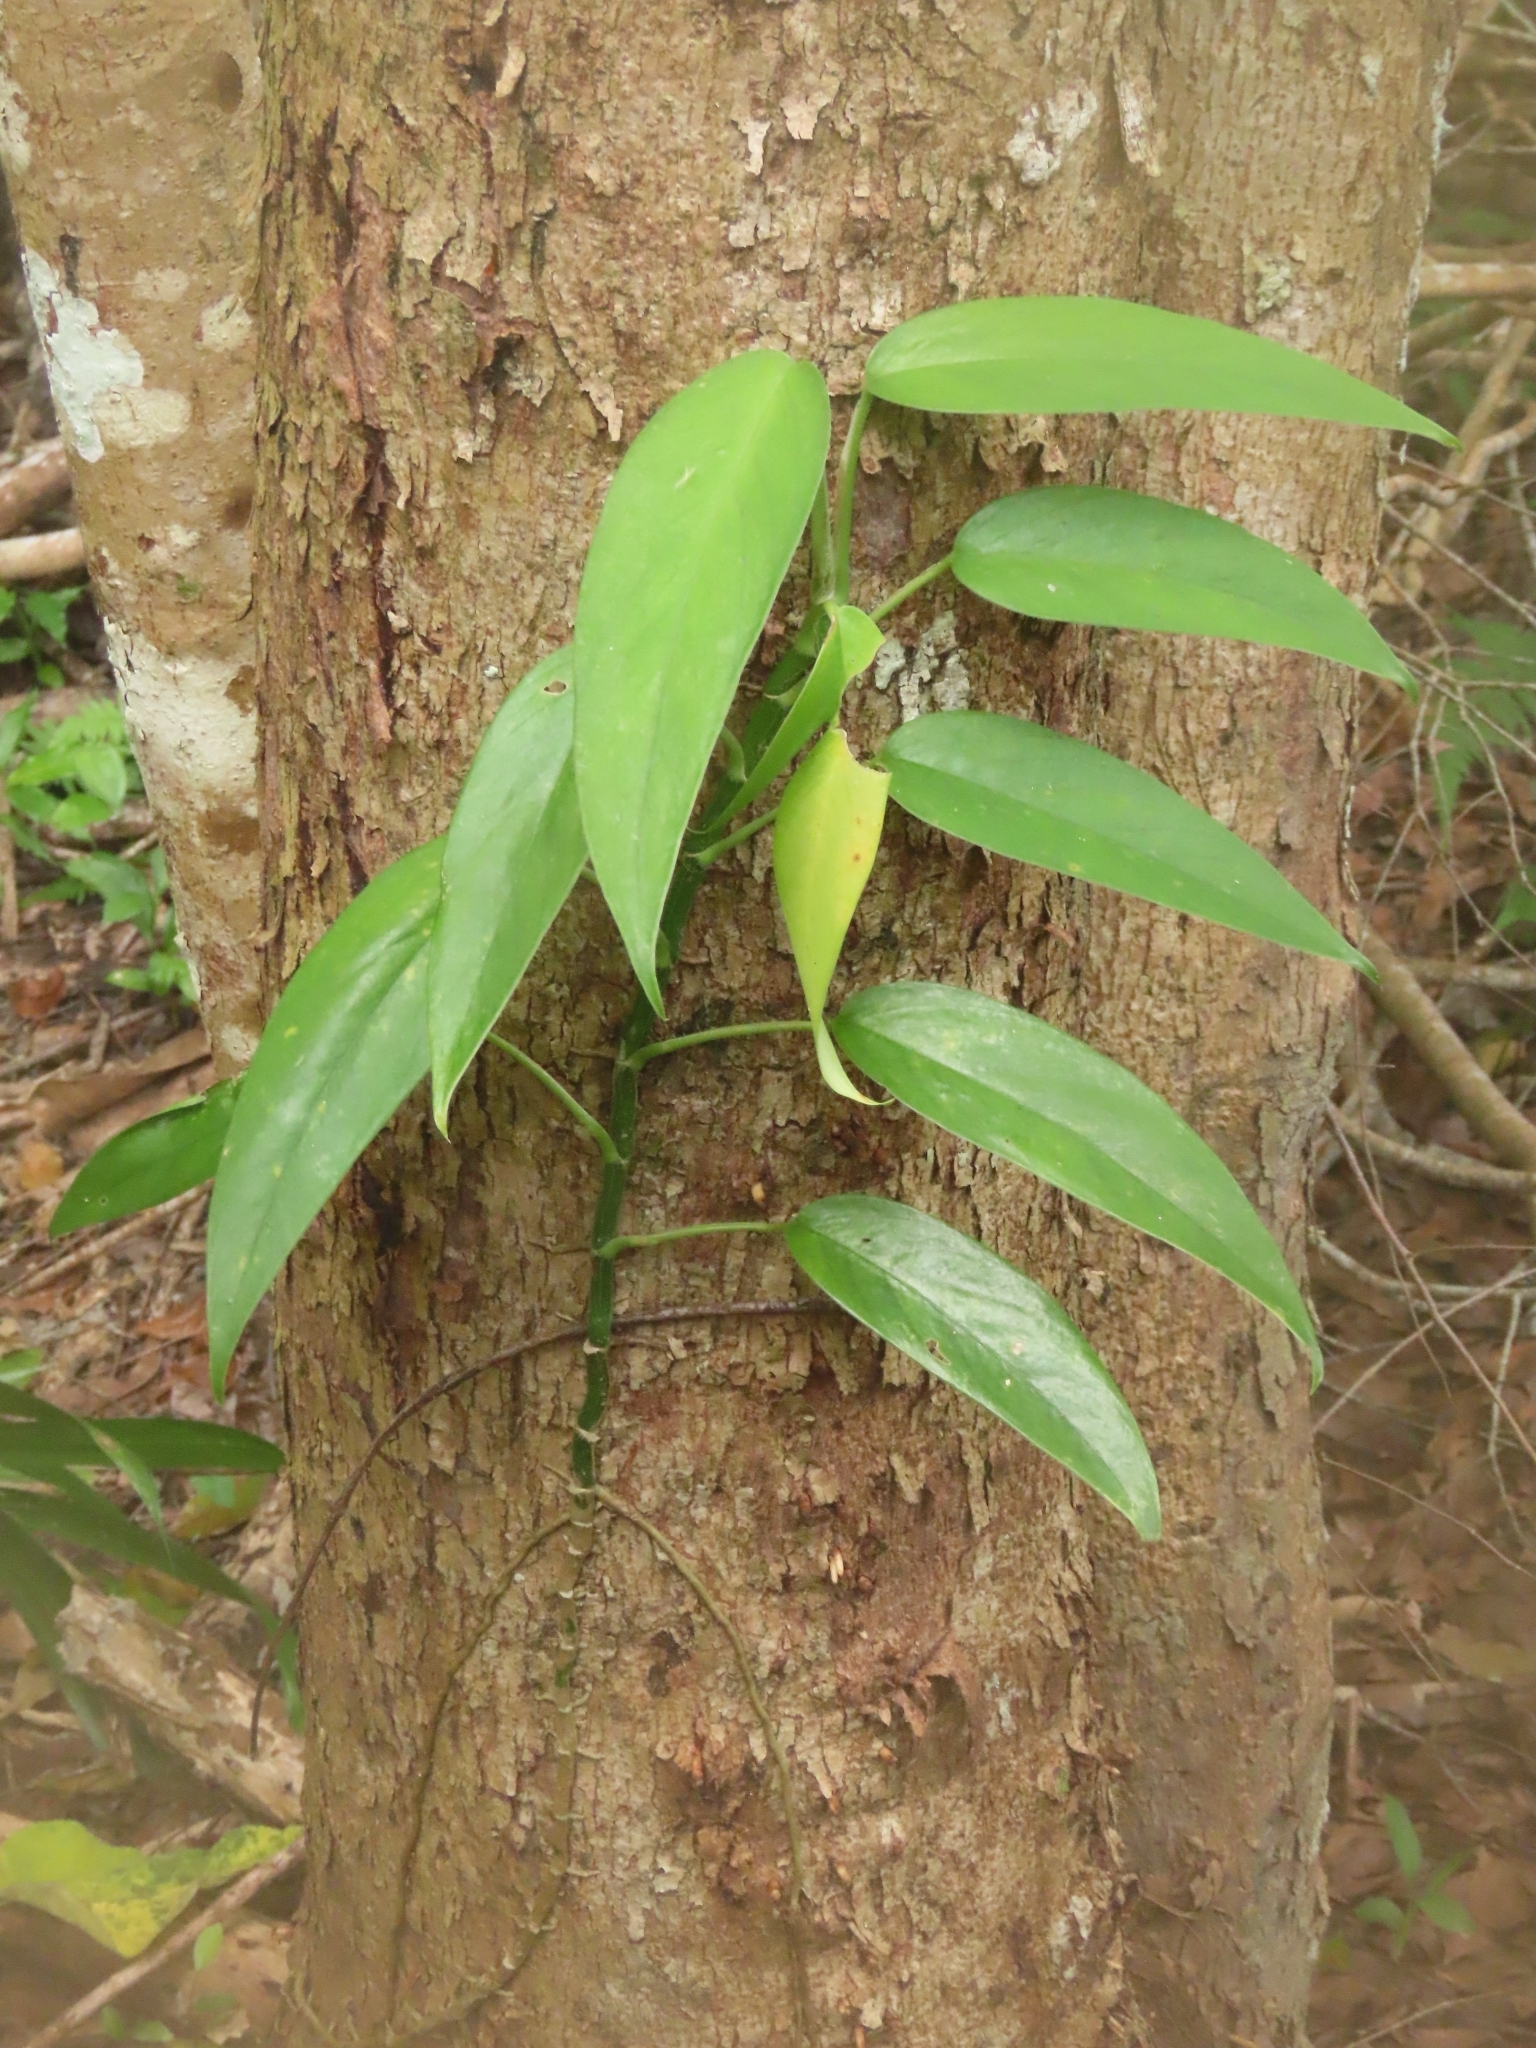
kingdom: Plantae
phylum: Tracheophyta
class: Liliopsida
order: Alismatales
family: Araceae
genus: Epipremnum
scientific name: Epipremnum pinnatum
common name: Centipede tongavine
